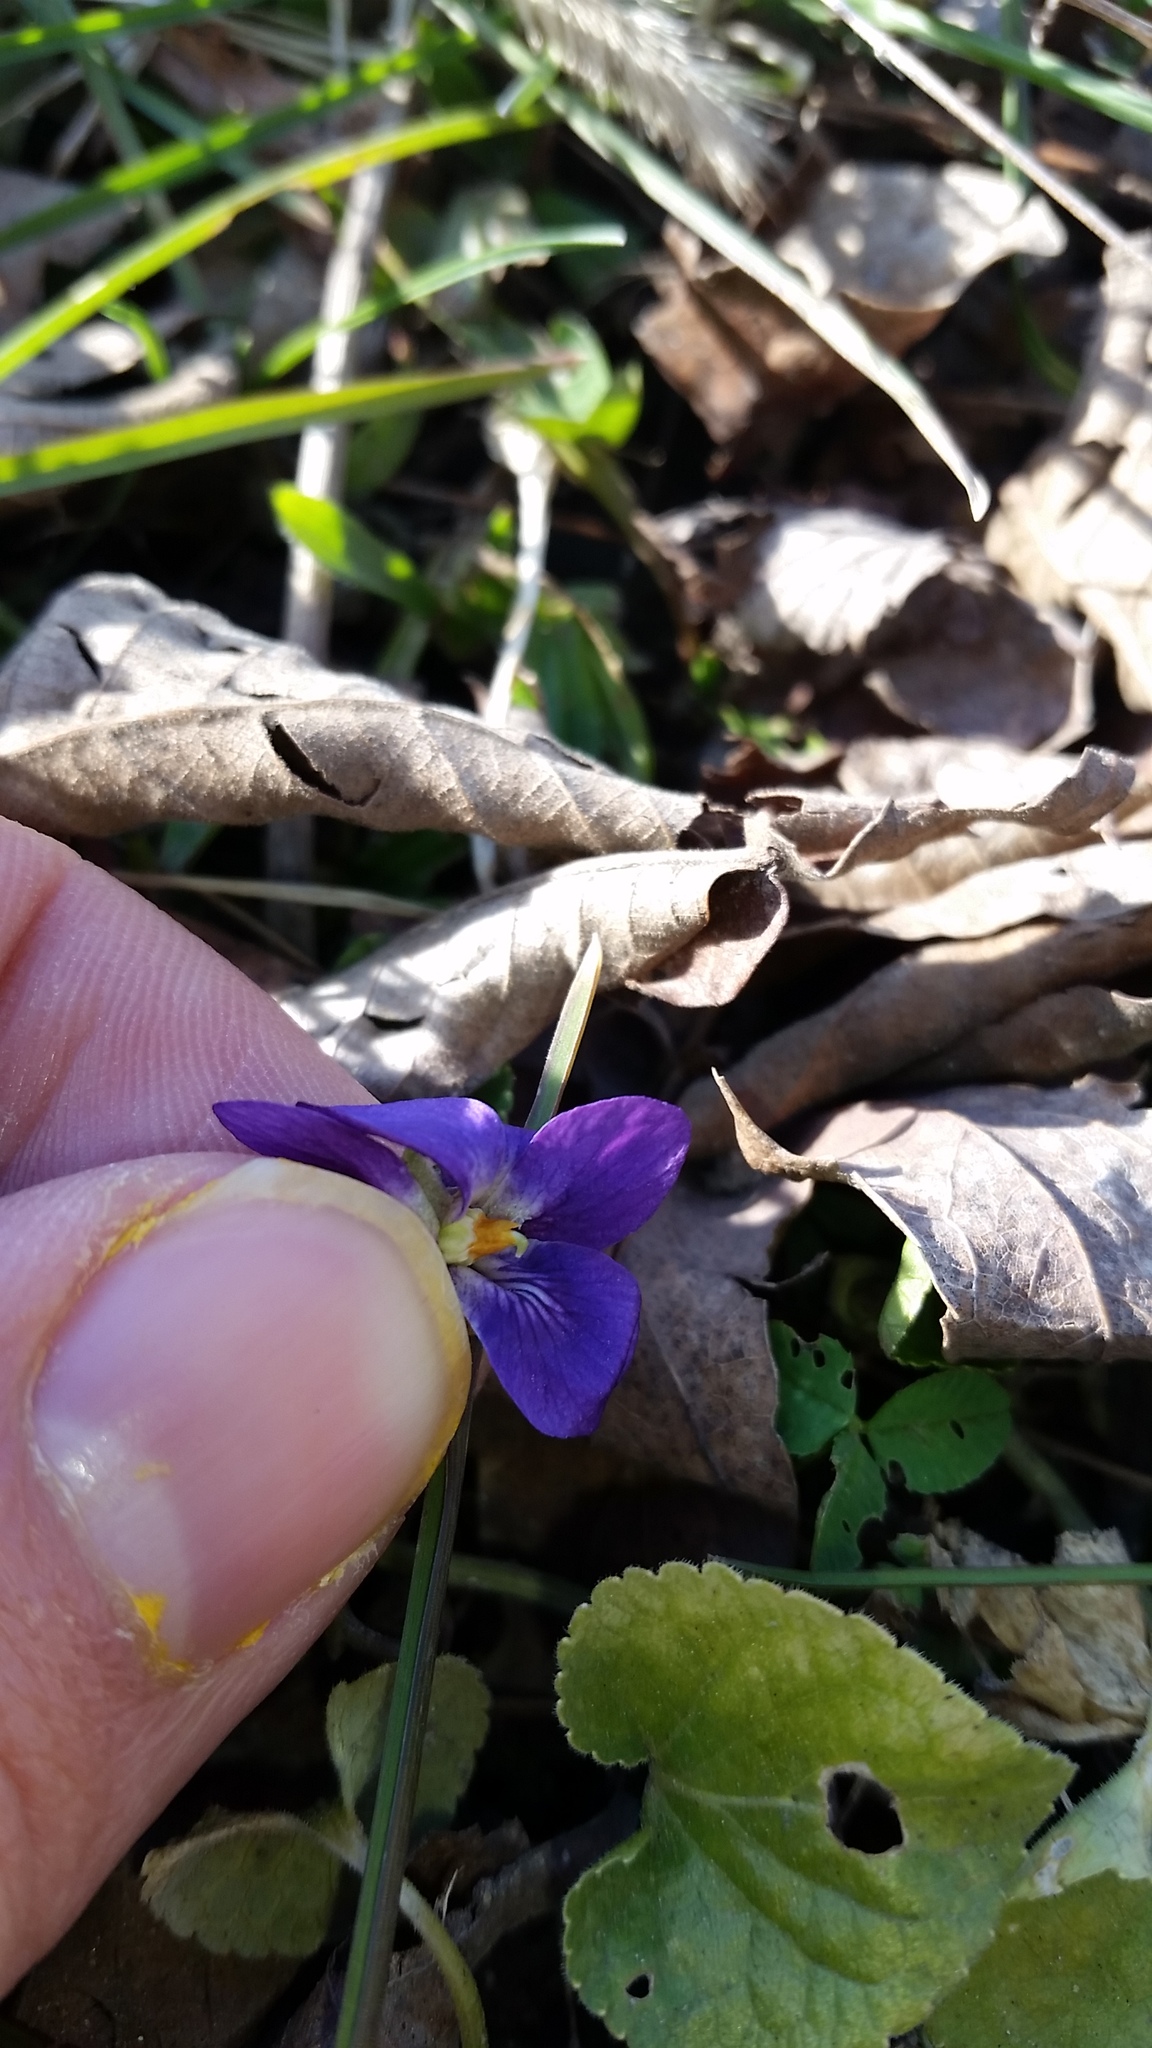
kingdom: Plantae
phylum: Tracheophyta
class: Magnoliopsida
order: Malpighiales
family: Violaceae
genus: Viola
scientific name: Viola odorata
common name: Sweet violet
